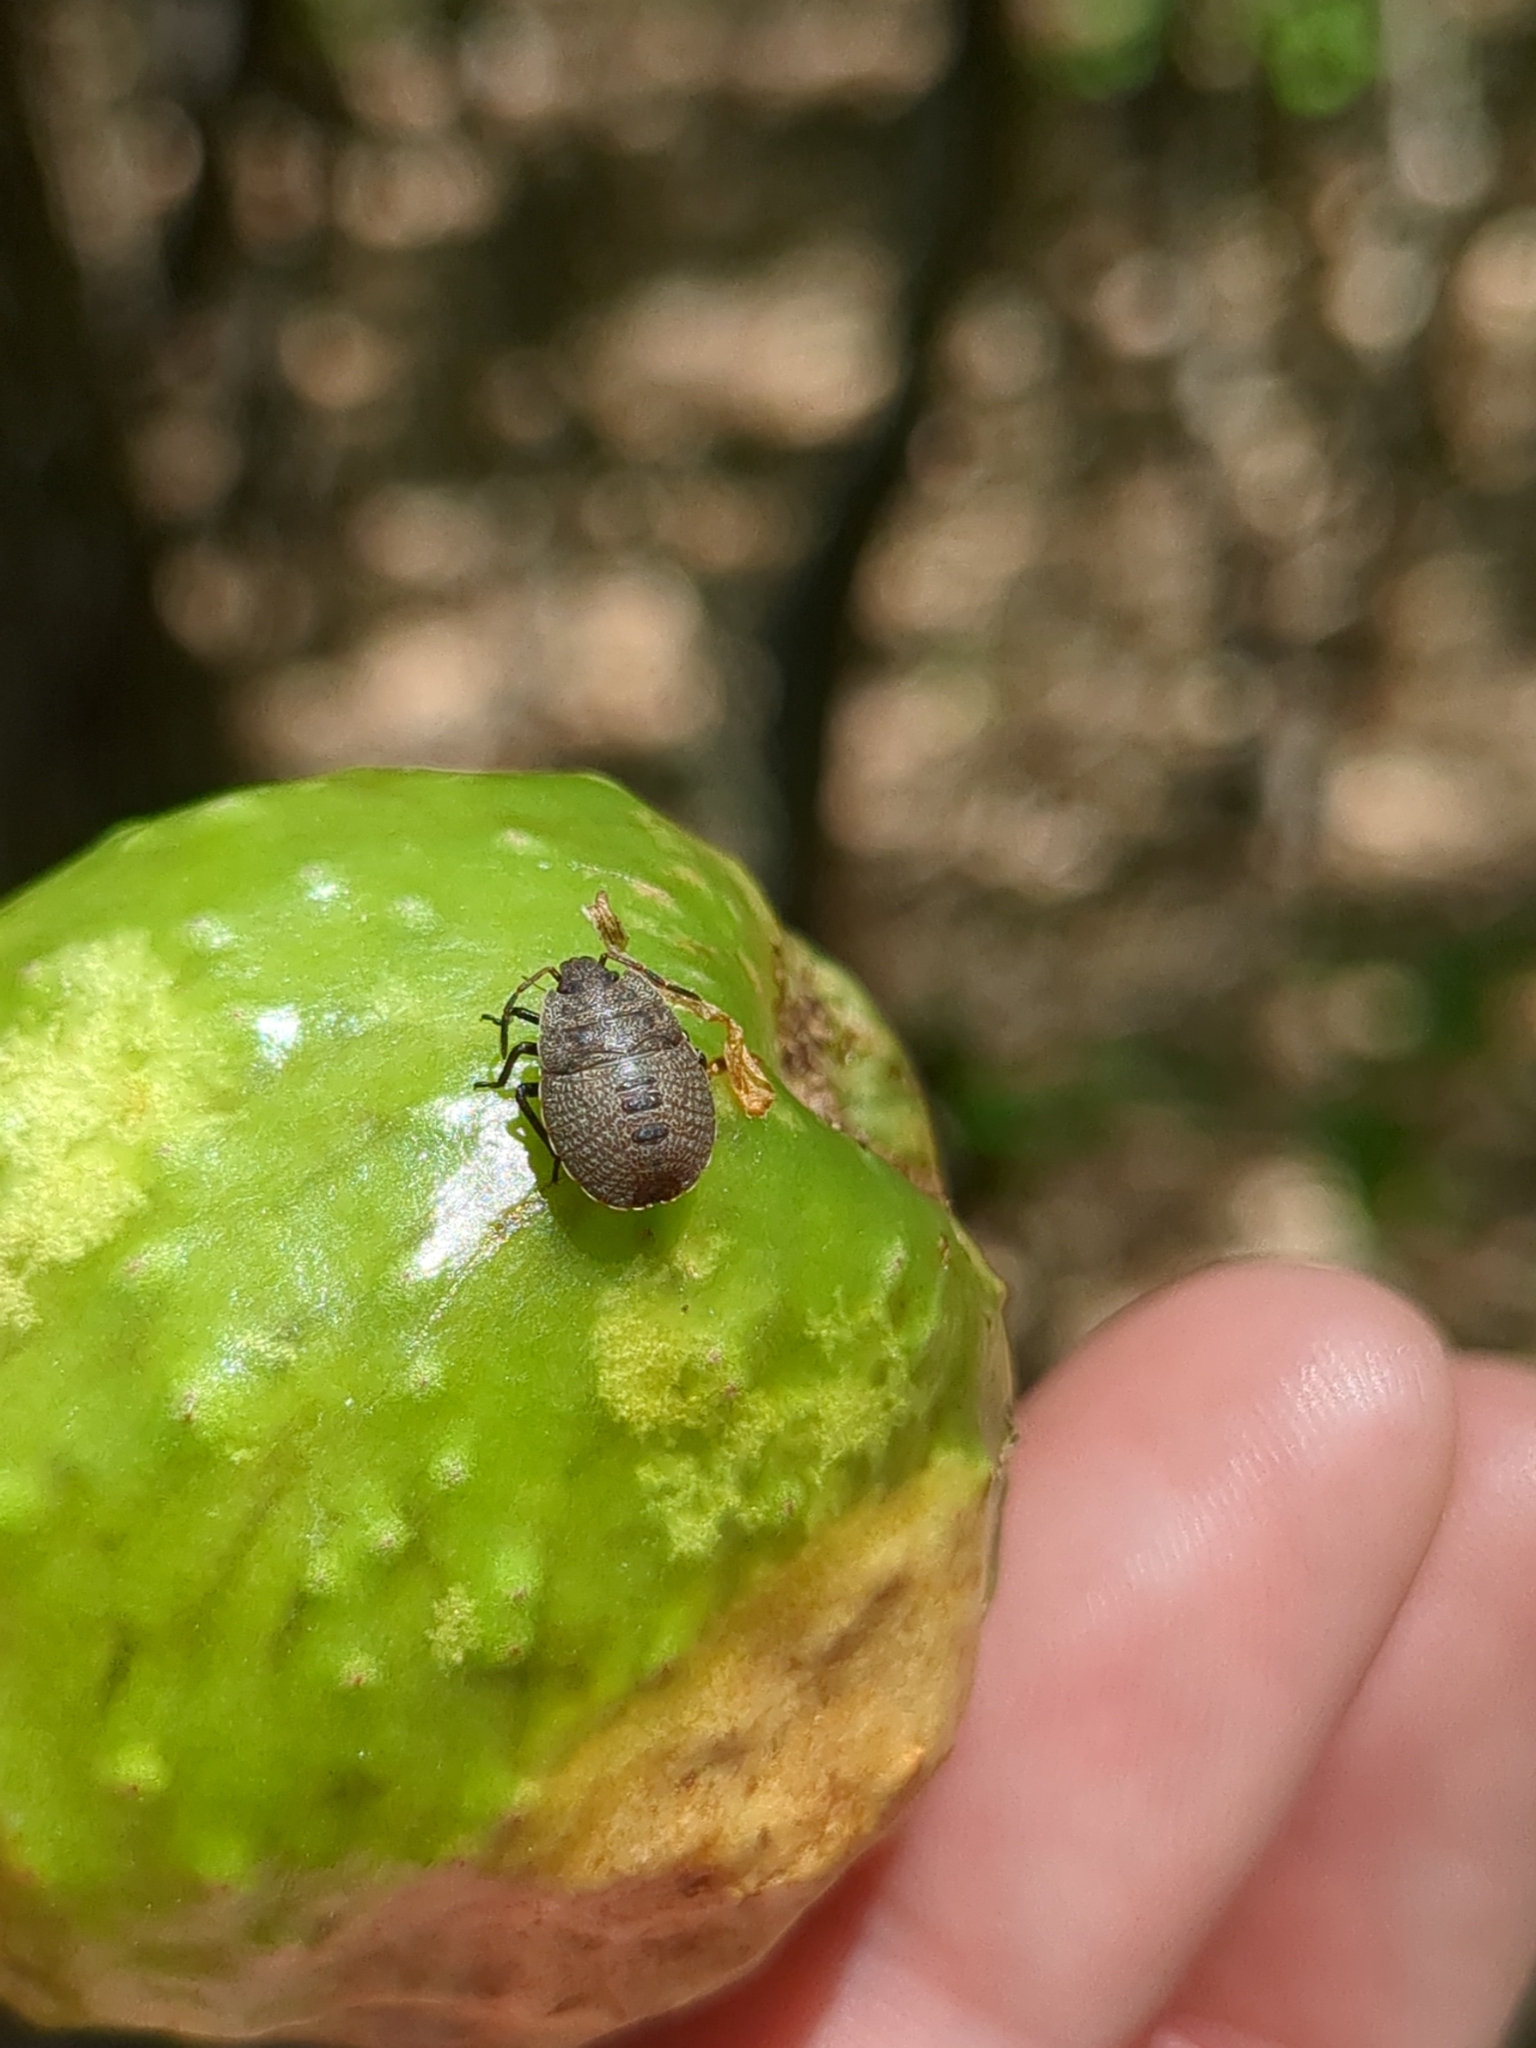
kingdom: Animalia
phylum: Arthropoda
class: Insecta
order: Hemiptera
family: Pentatomidae
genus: Menecles
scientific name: Menecles insertus
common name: Elf shoe stink bug
